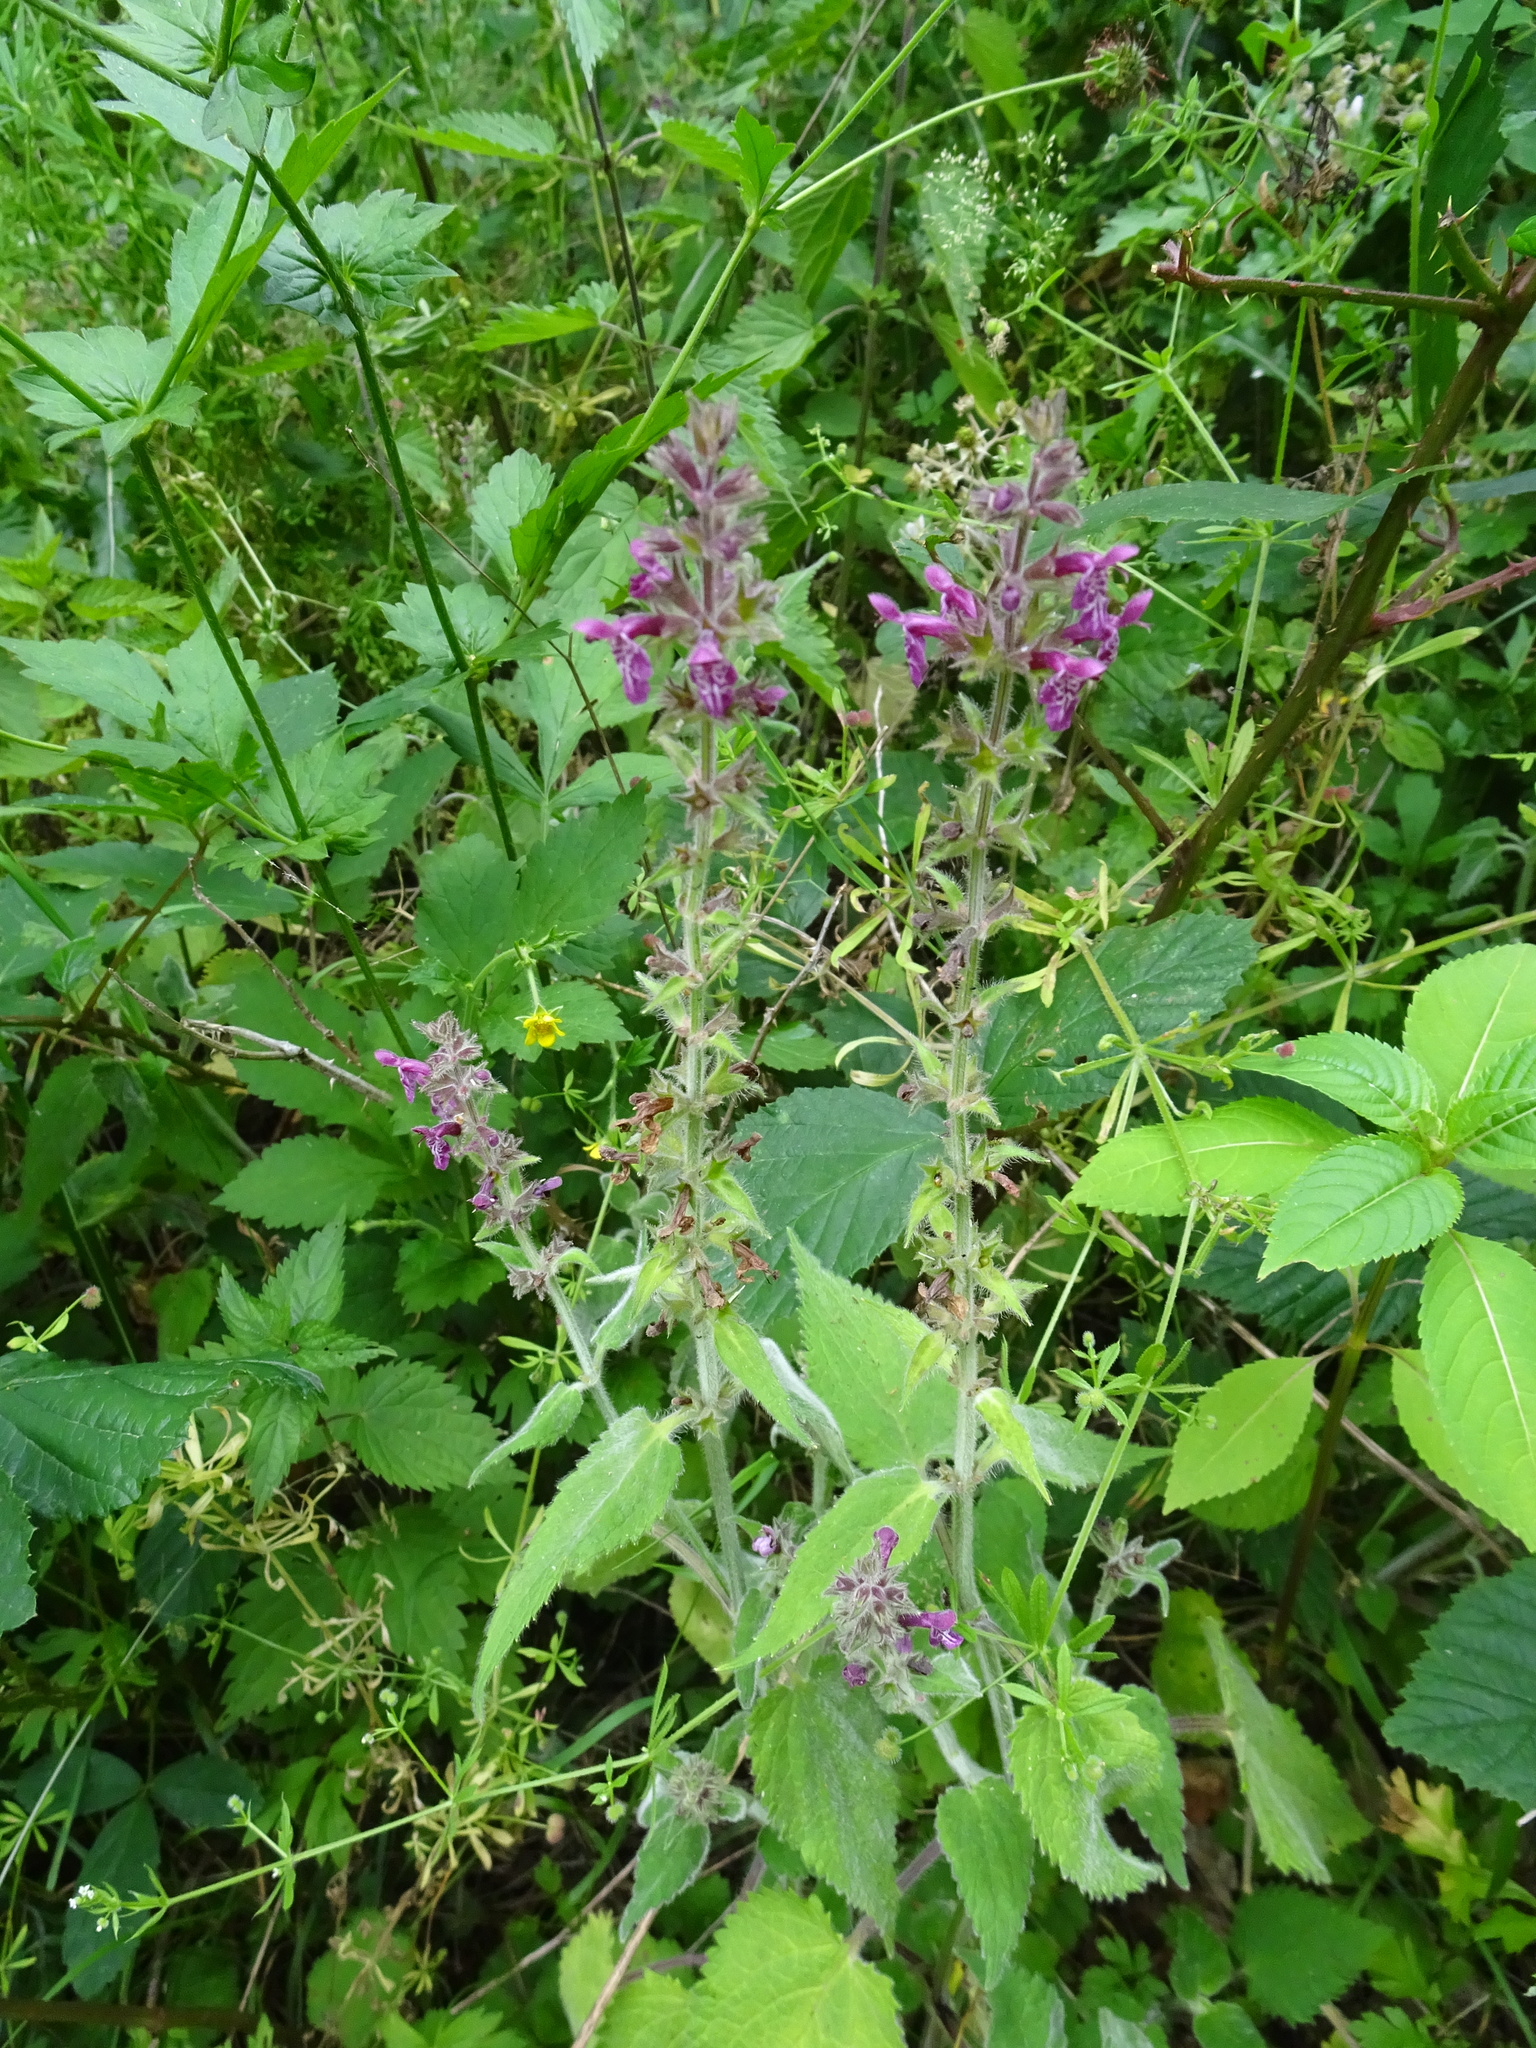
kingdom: Plantae
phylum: Tracheophyta
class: Magnoliopsida
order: Lamiales
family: Lamiaceae
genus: Stachys
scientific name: Stachys sylvatica
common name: Hedge woundwort
